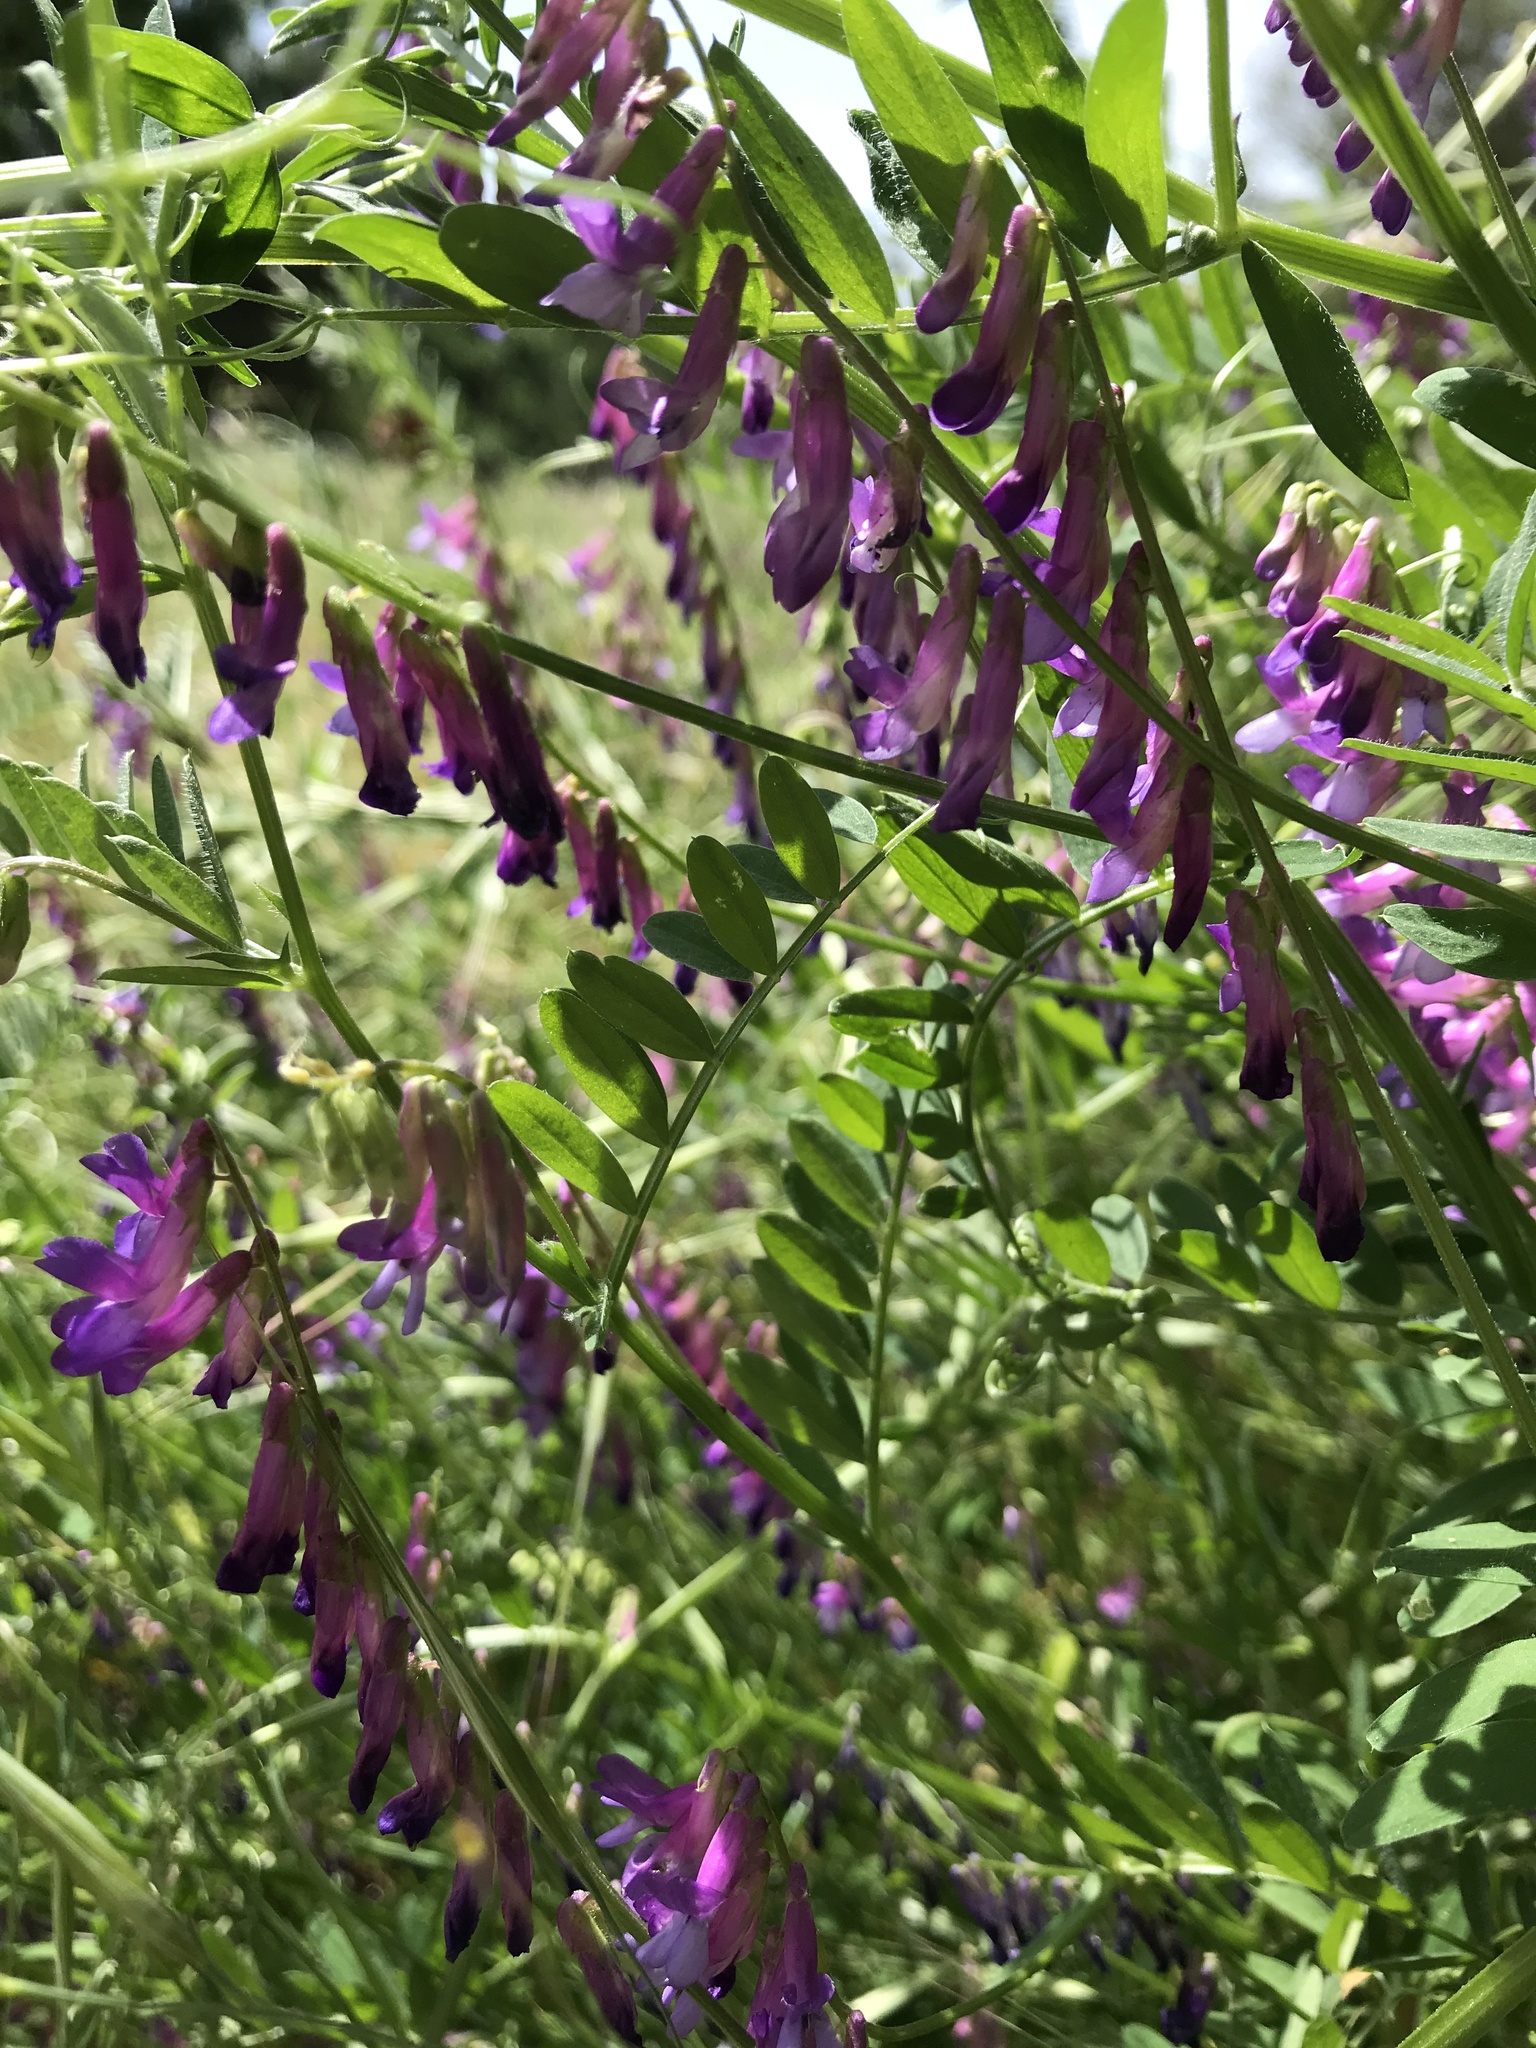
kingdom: Plantae
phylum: Tracheophyta
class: Magnoliopsida
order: Fabales
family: Fabaceae
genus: Vicia
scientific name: Vicia villosa
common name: Fodder vetch
